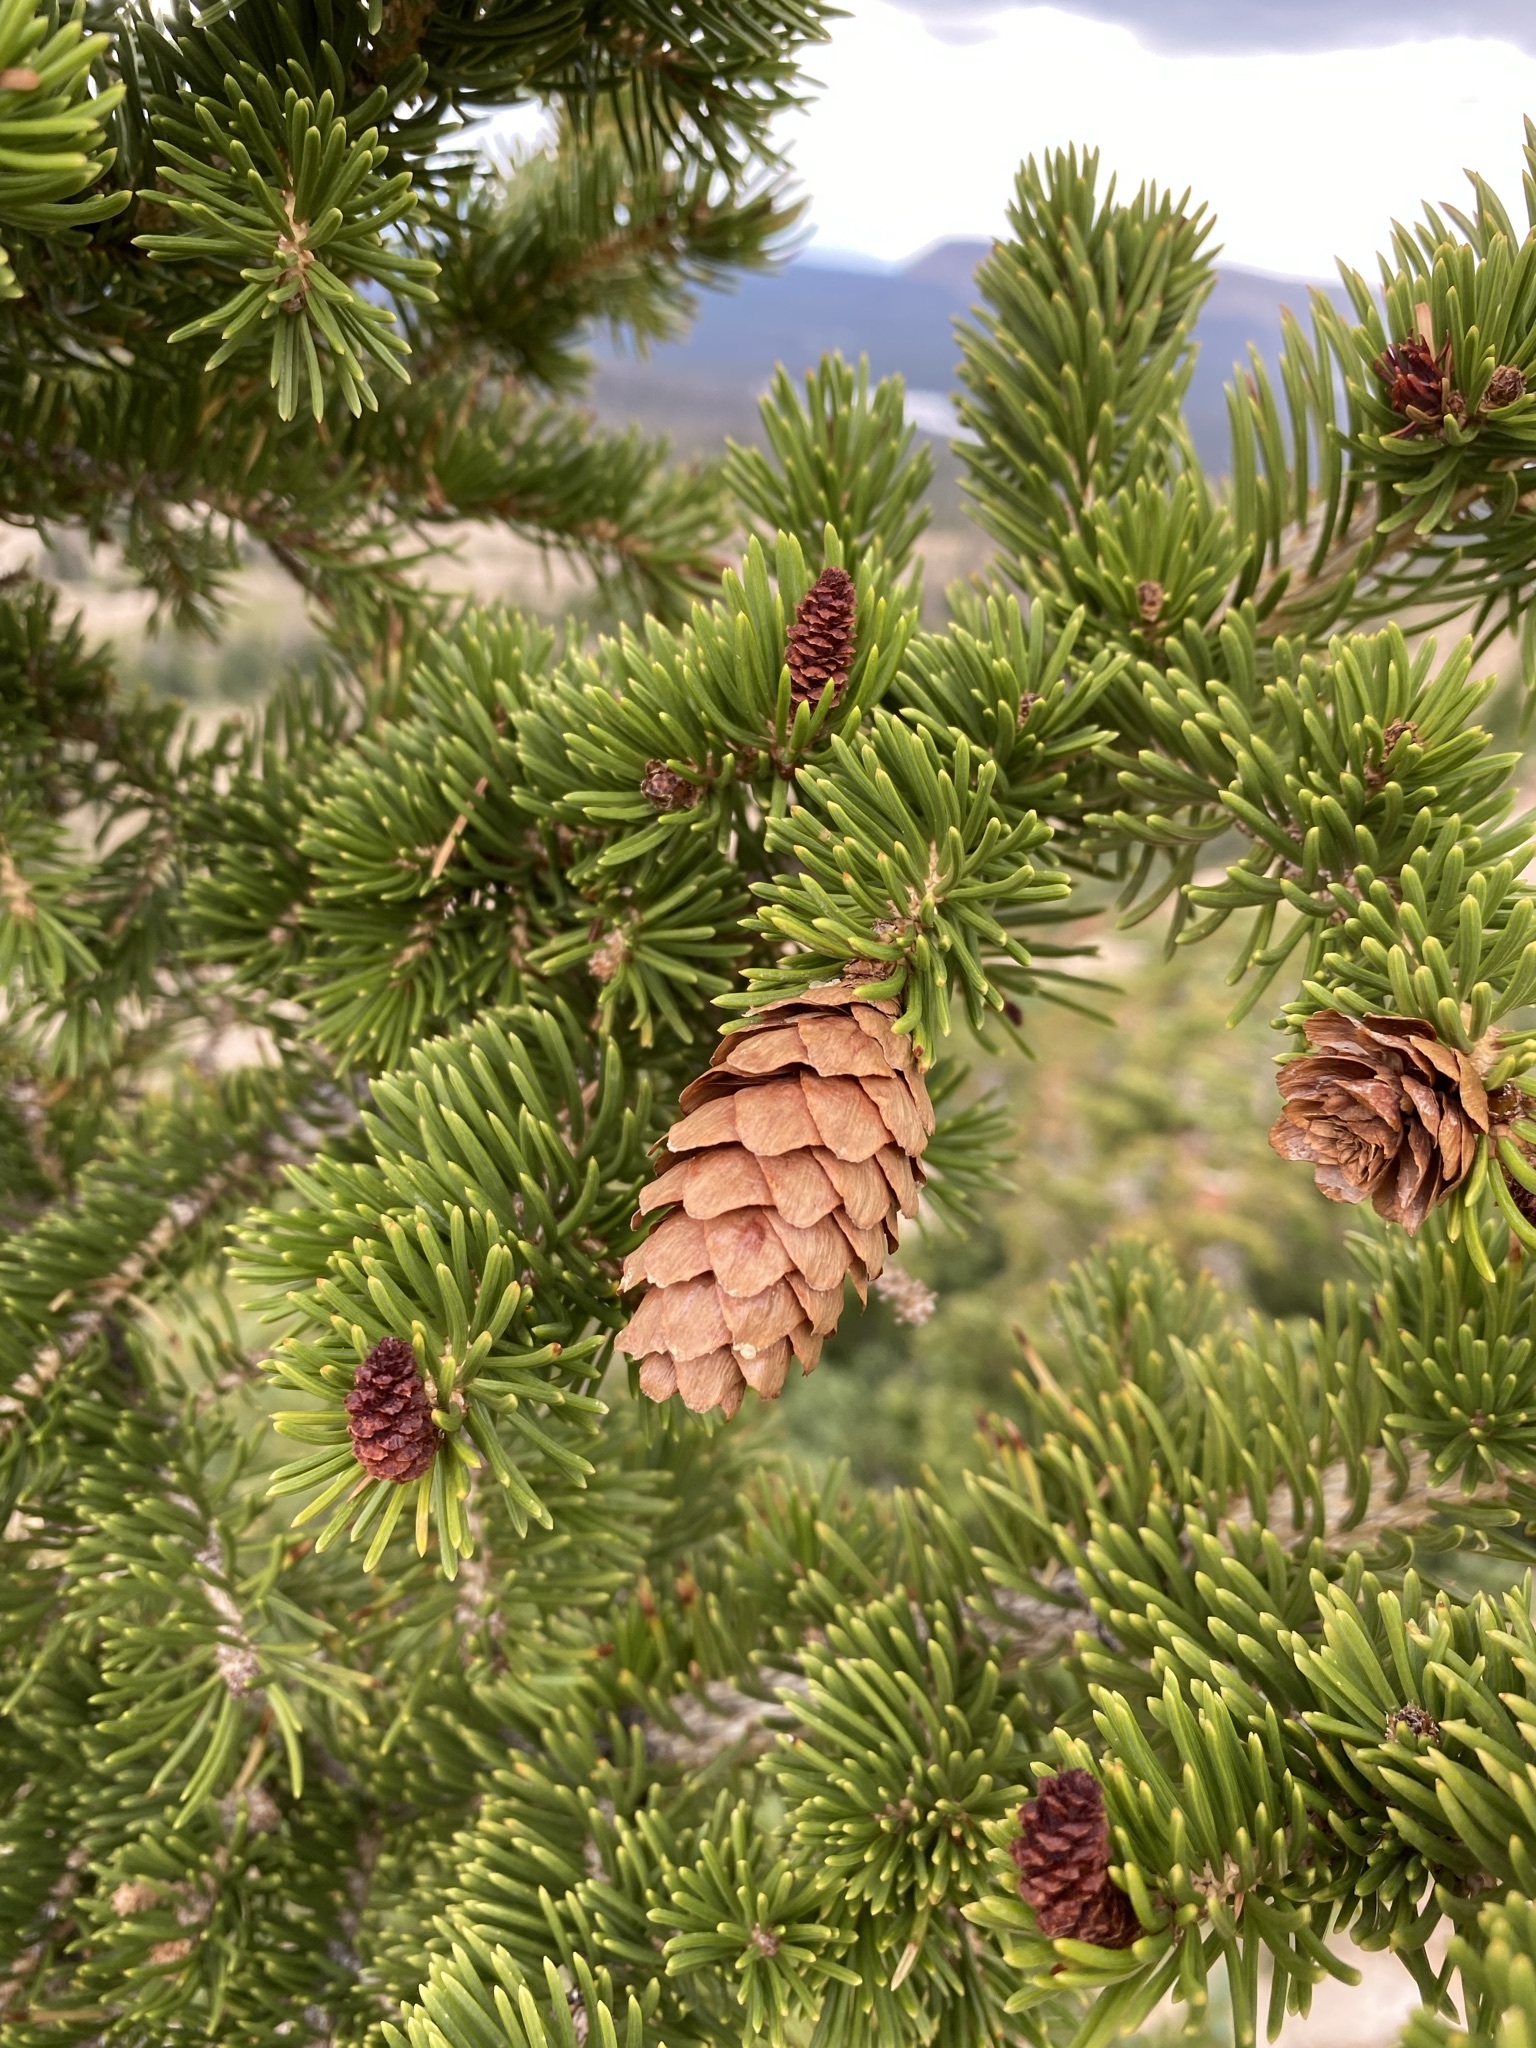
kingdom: Plantae
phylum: Tracheophyta
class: Pinopsida
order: Pinales
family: Pinaceae
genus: Picea
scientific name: Picea engelmannii
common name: Engelmann spruce
